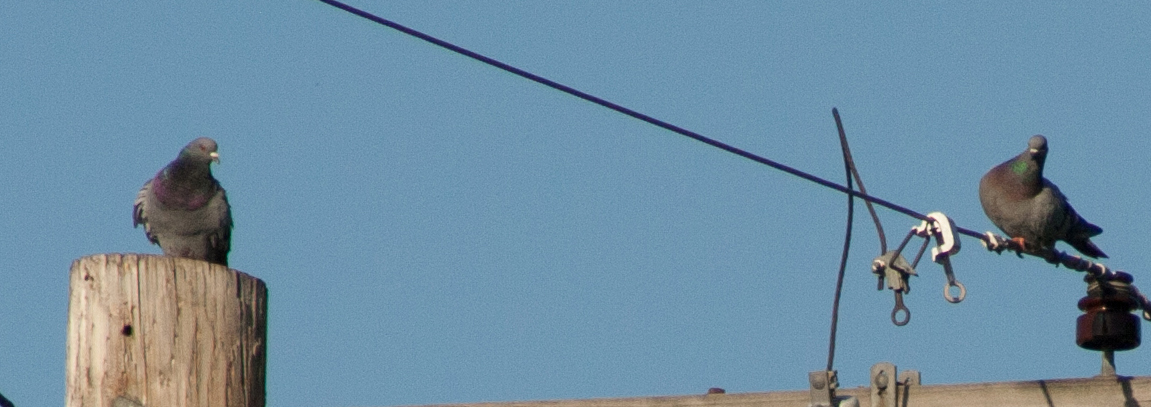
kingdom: Animalia
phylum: Chordata
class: Aves
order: Columbiformes
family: Columbidae
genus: Columba
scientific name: Columba livia
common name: Rock pigeon
